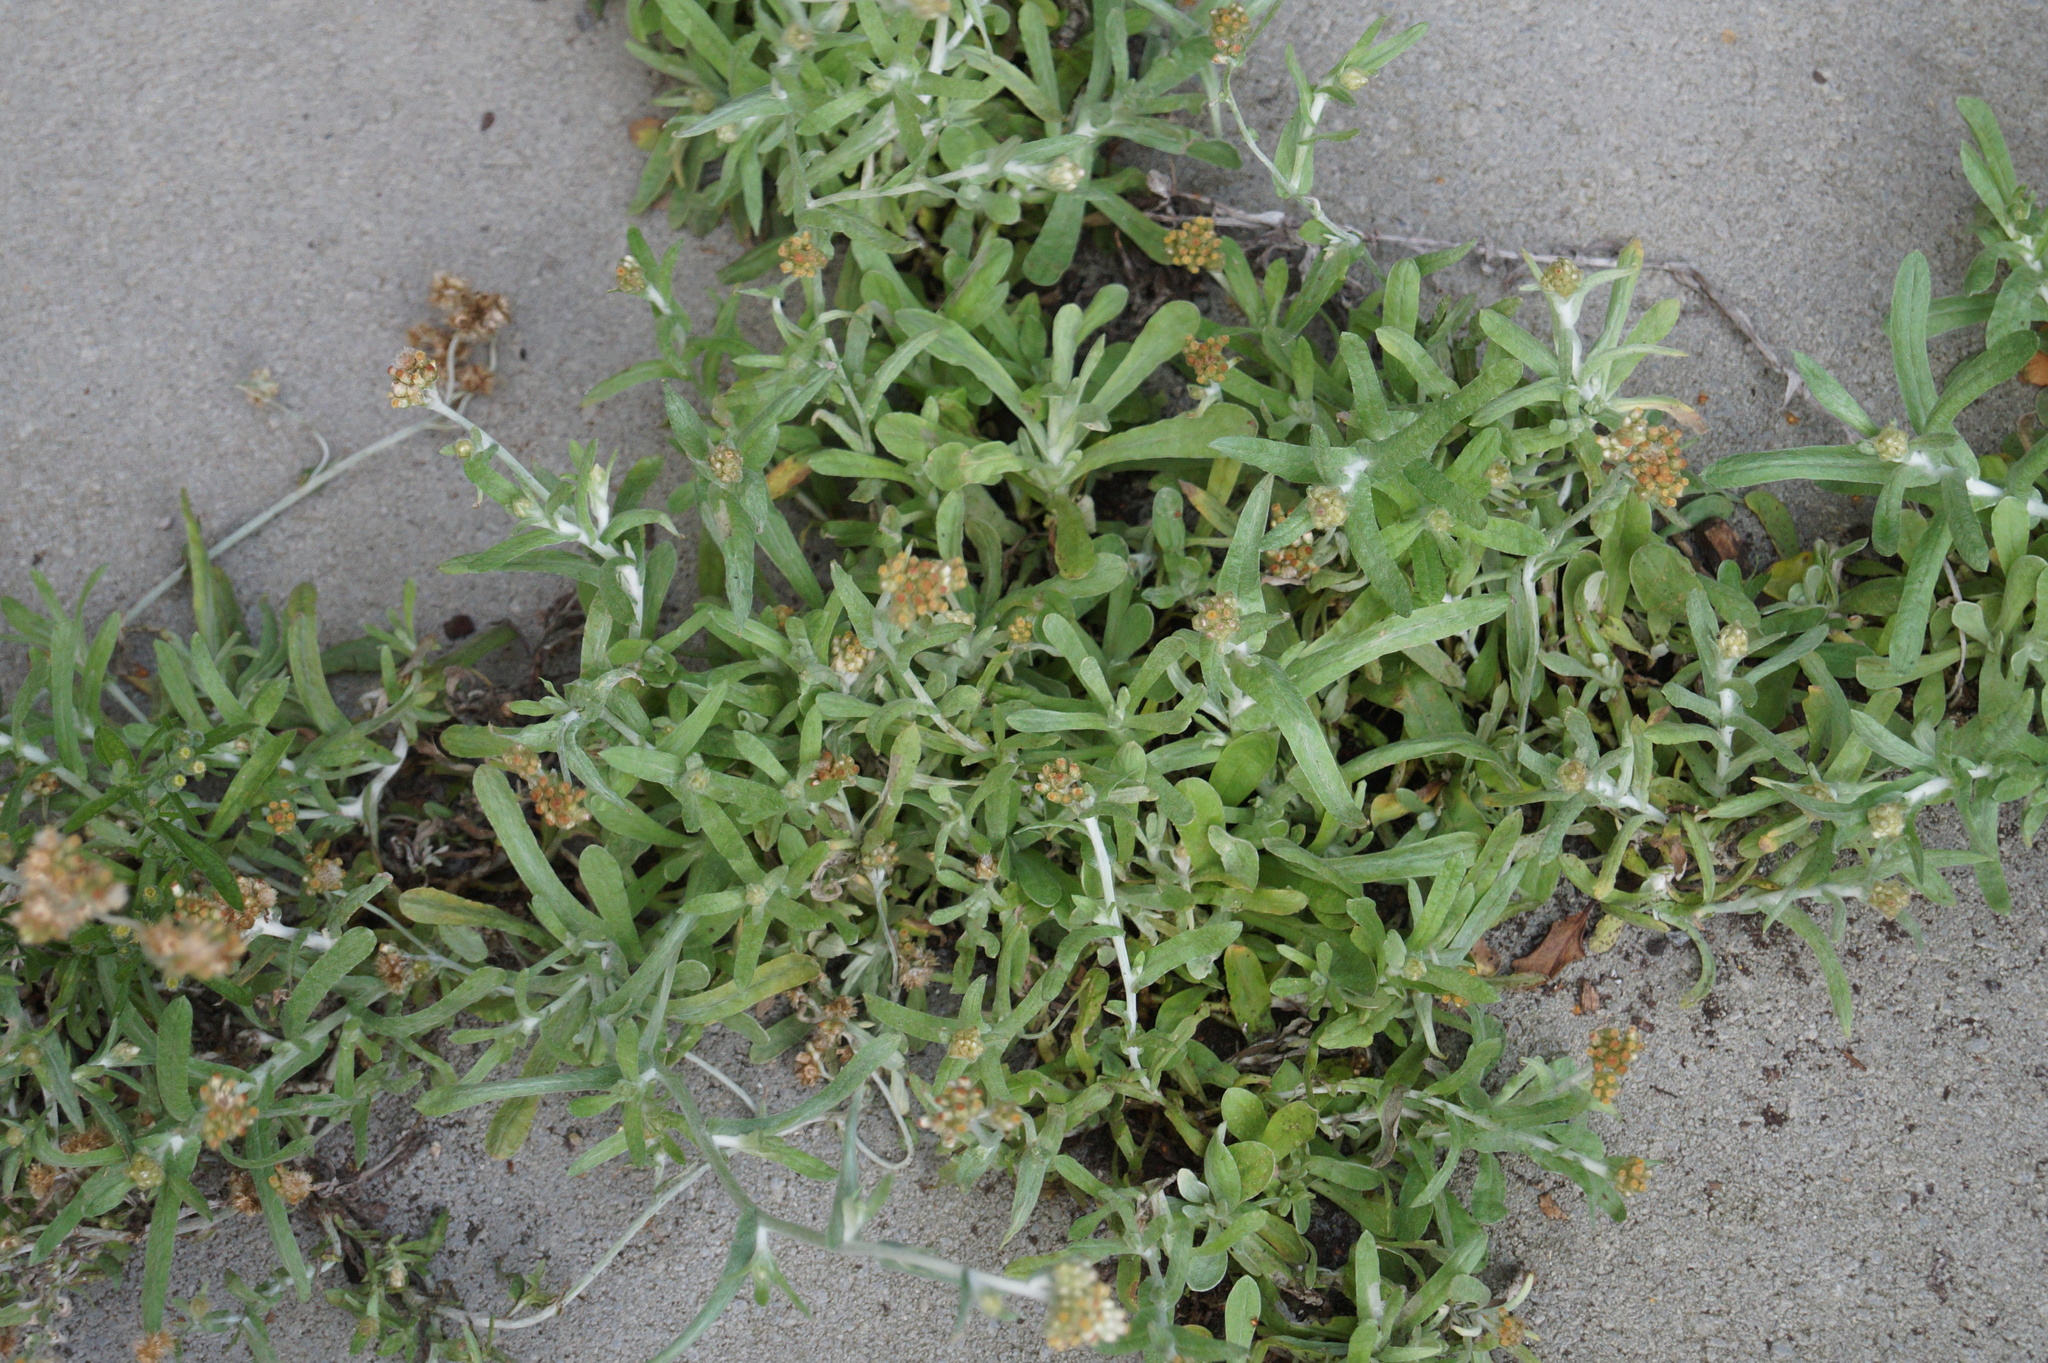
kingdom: Plantae
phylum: Tracheophyta
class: Magnoliopsida
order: Asterales
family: Asteraceae
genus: Helichrysum
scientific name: Helichrysum luteoalbum
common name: Daisy
